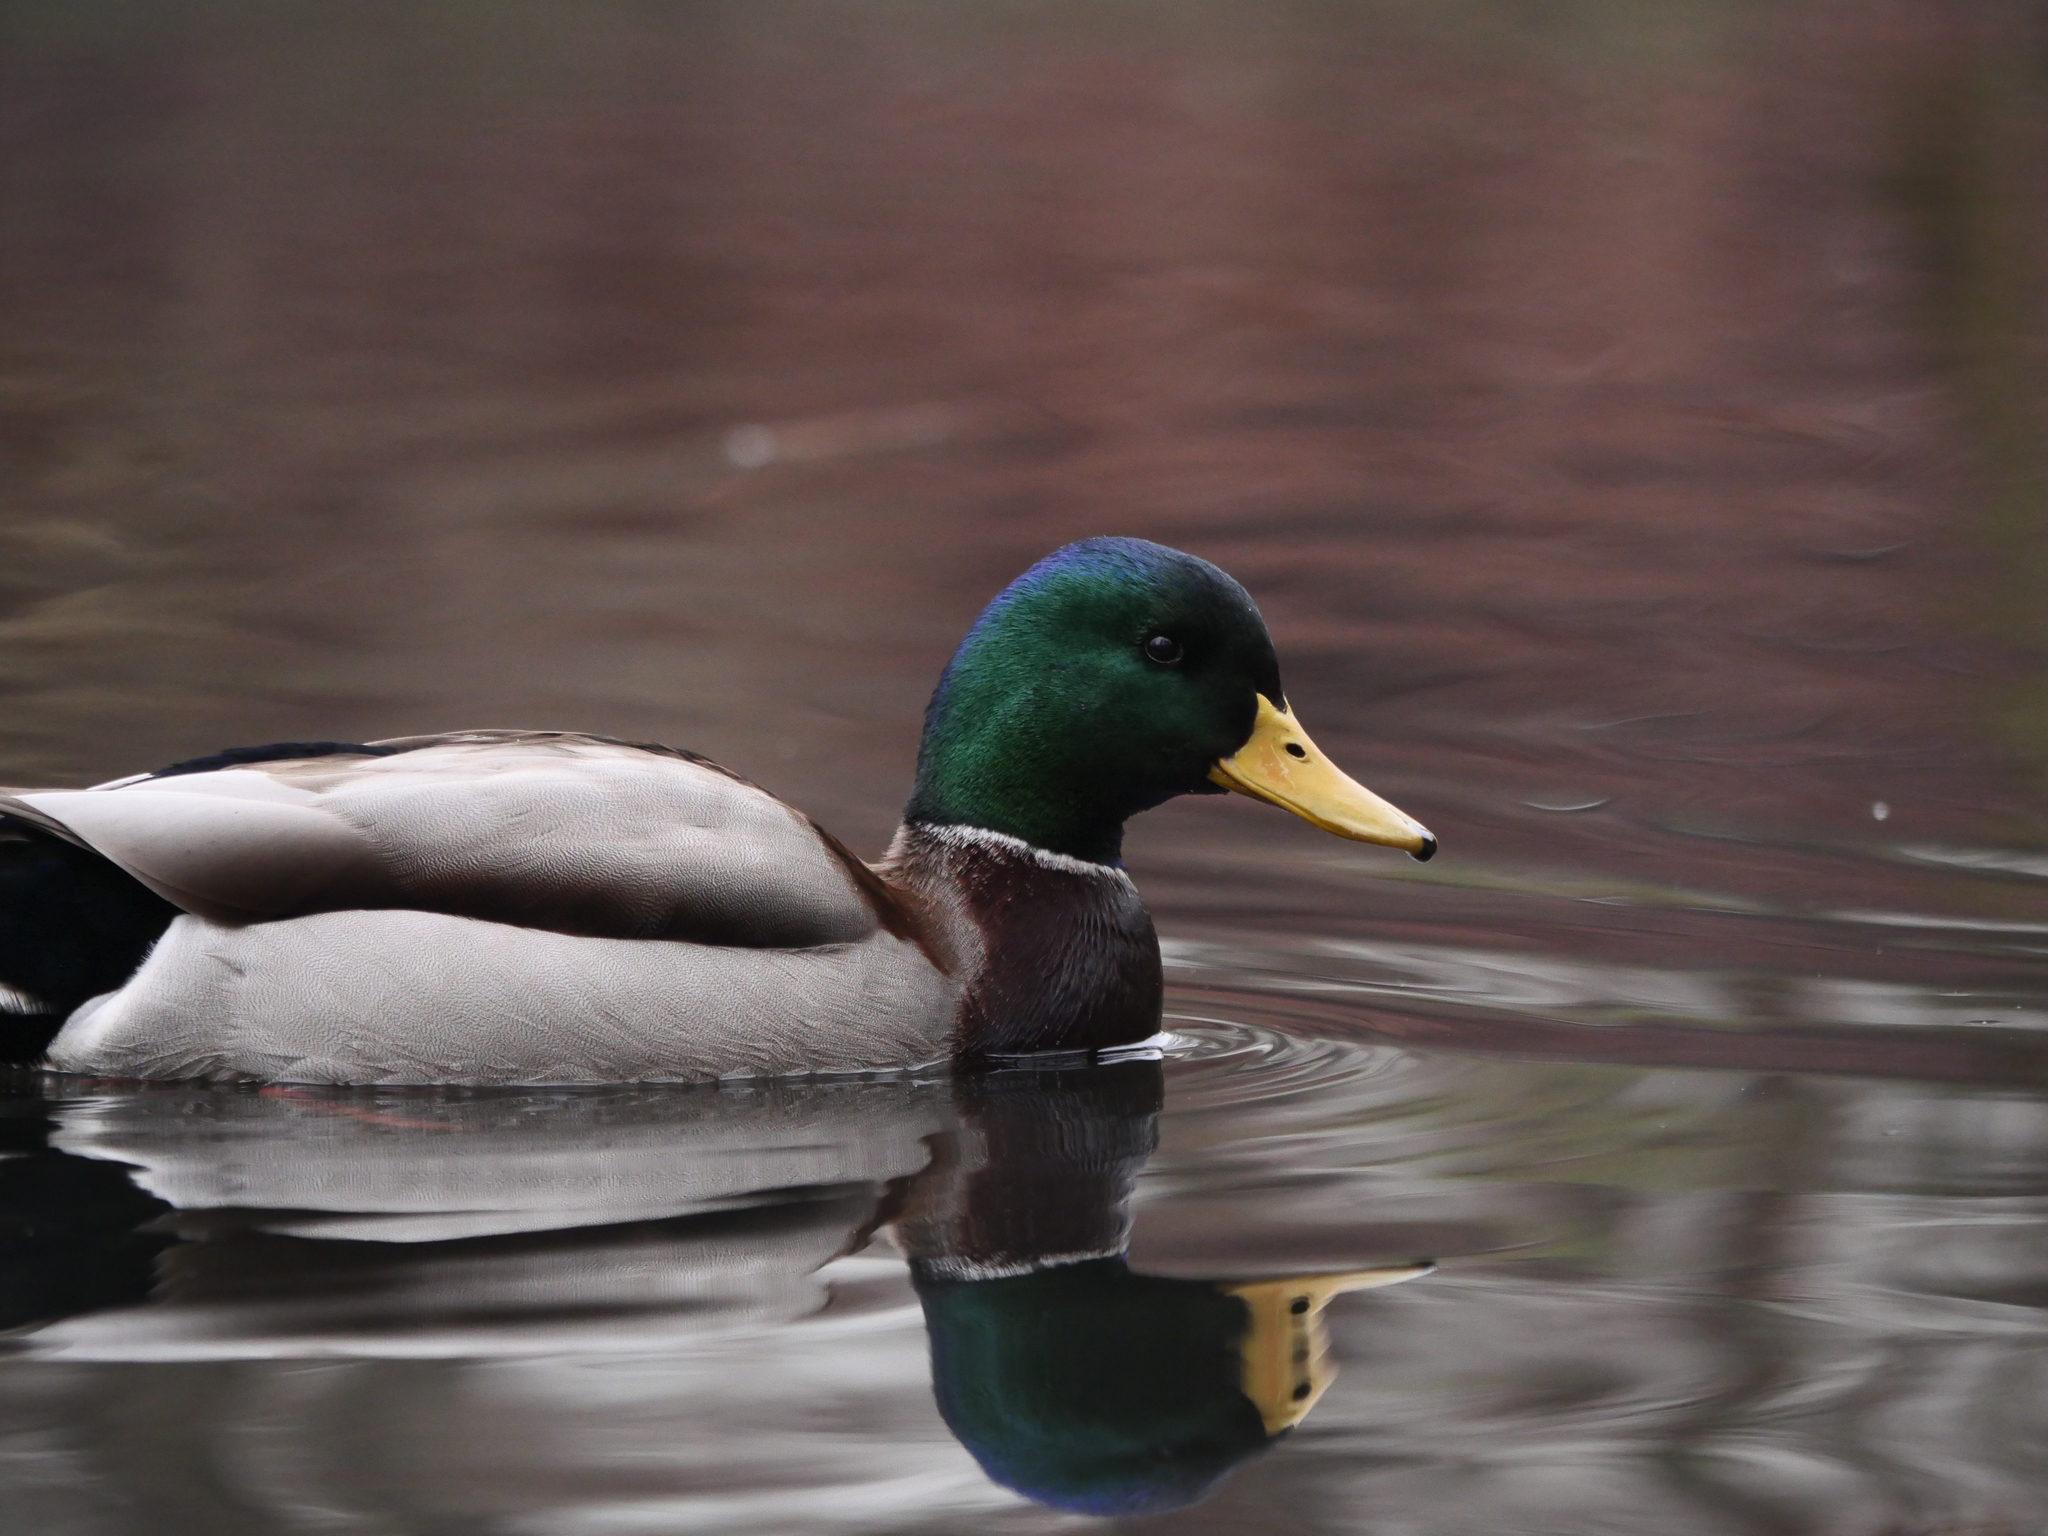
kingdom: Animalia
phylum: Chordata
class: Aves
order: Anseriformes
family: Anatidae
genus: Anas
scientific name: Anas platyrhynchos
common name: Mallard
